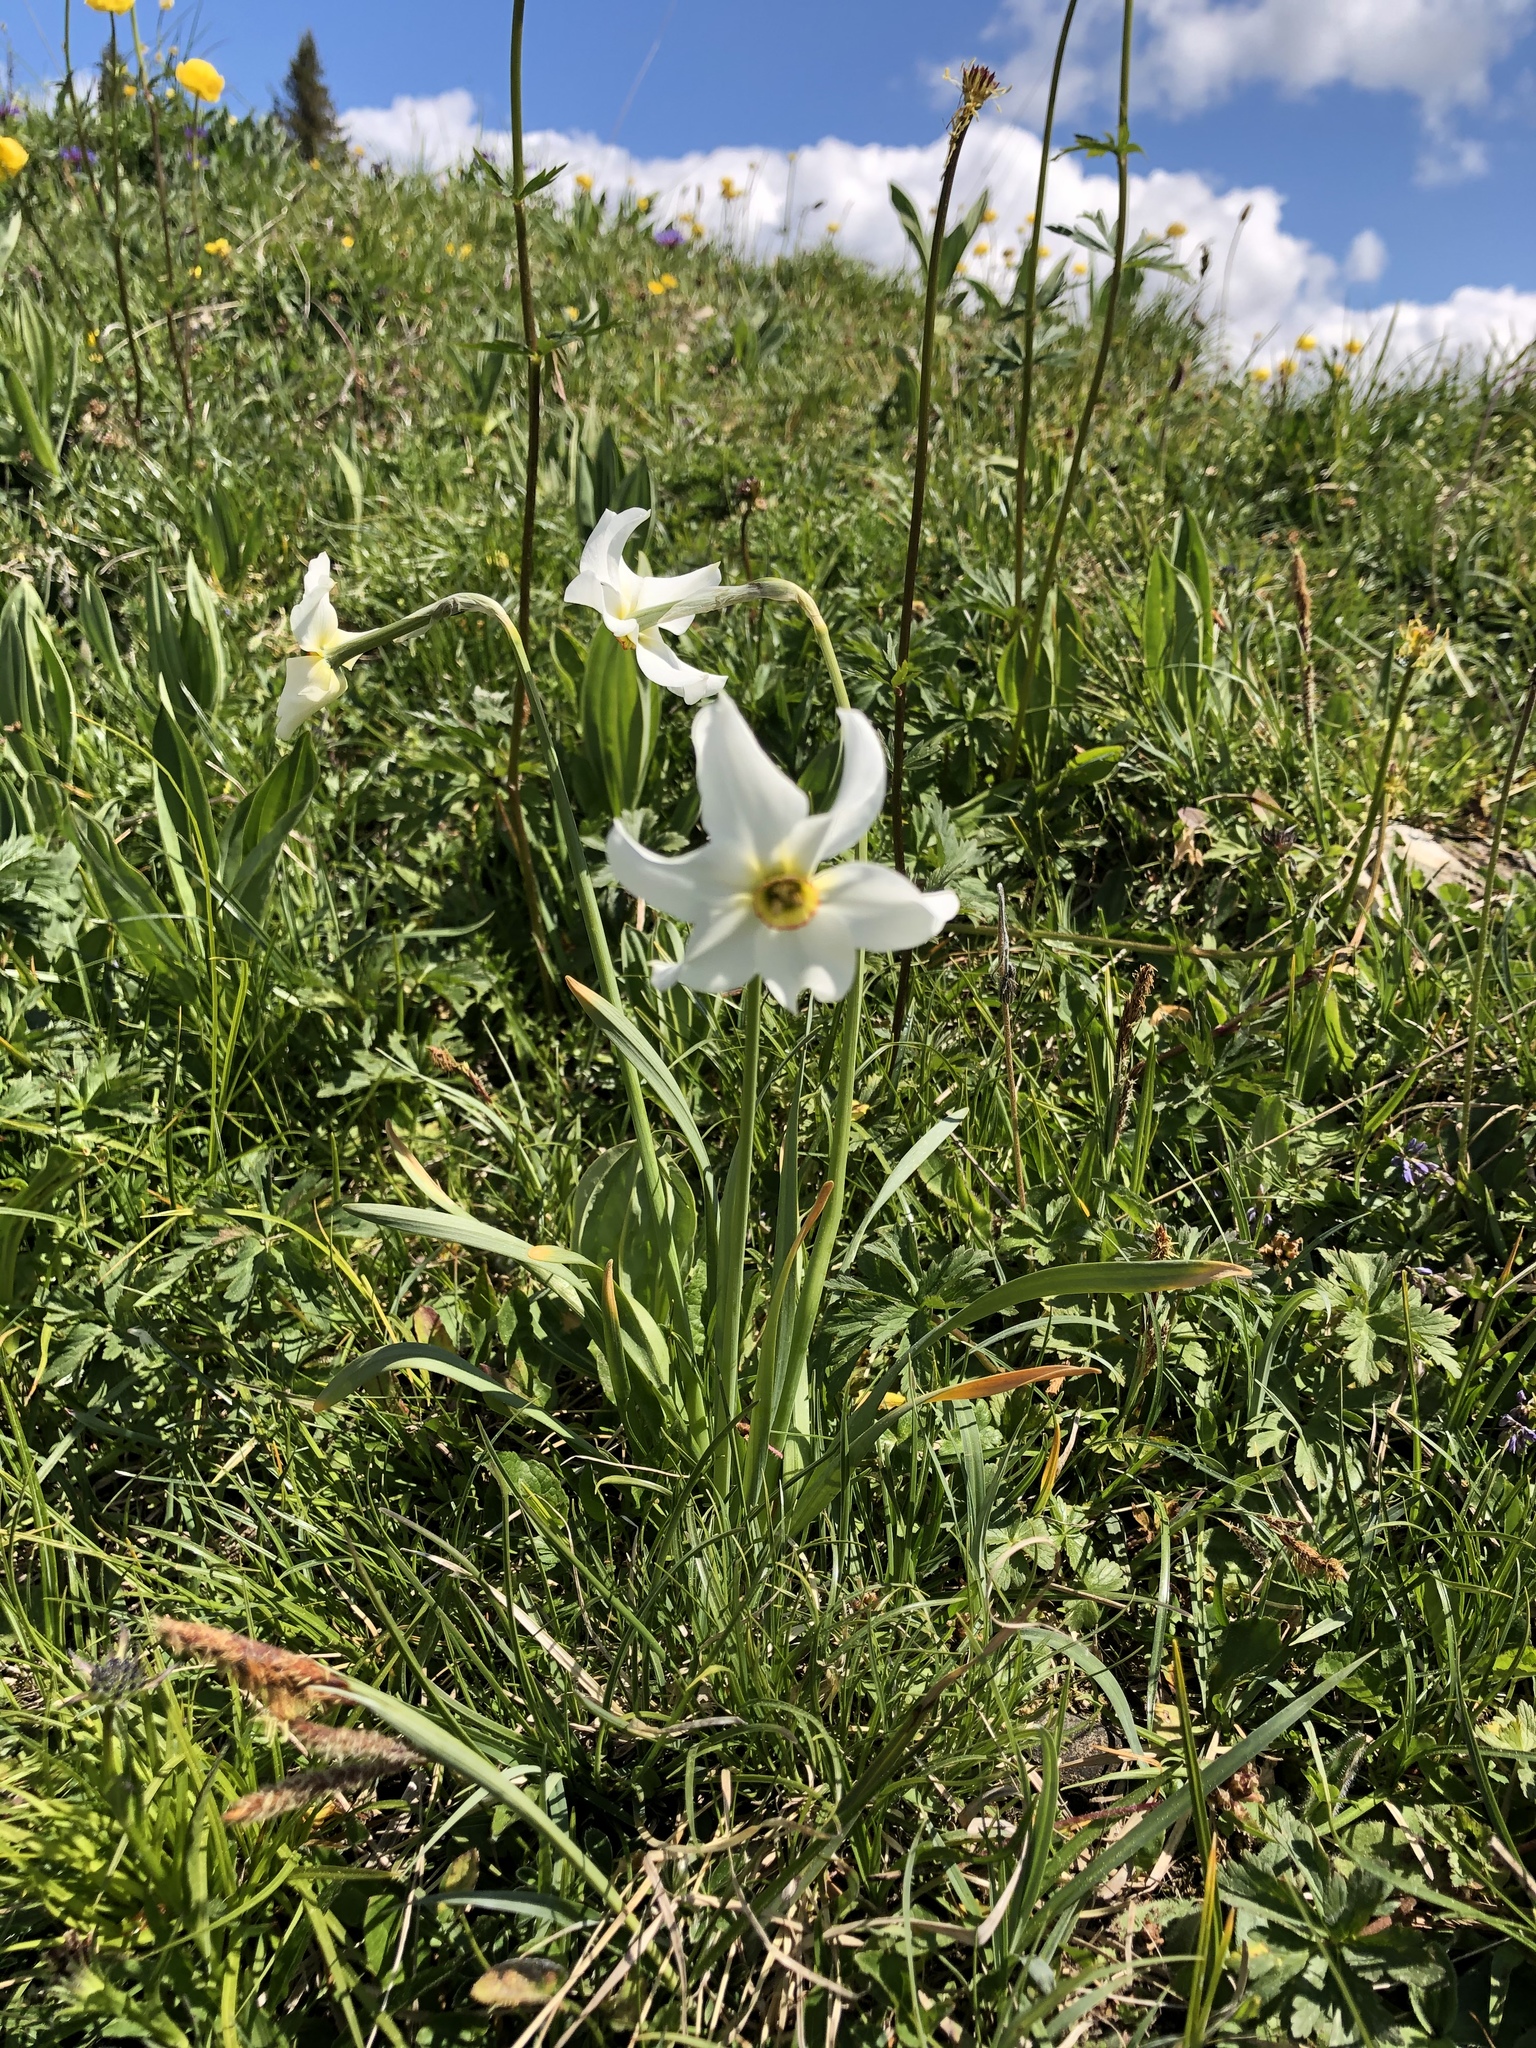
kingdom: Plantae
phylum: Tracheophyta
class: Liliopsida
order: Asparagales
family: Amaryllidaceae
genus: Narcissus
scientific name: Narcissus poeticus
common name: Pheasant's-eye daffodil
